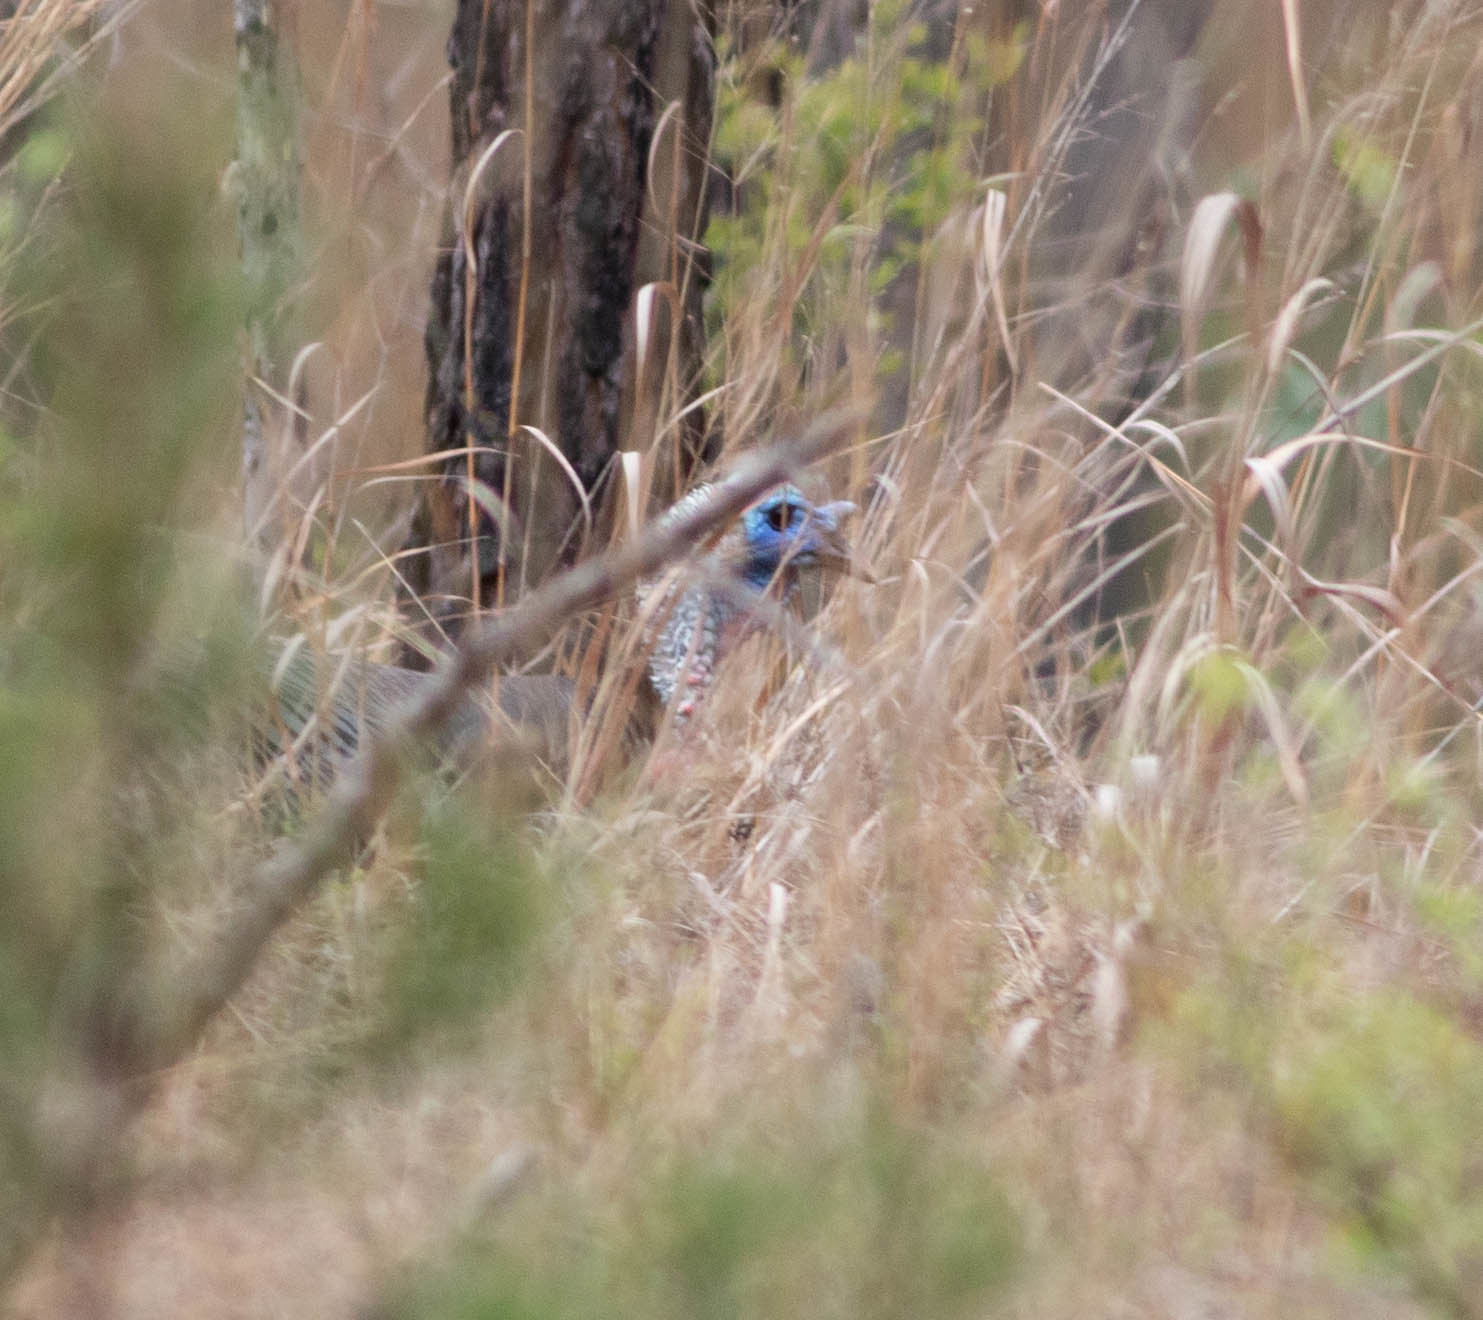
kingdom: Animalia
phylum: Chordata
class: Aves
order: Galliformes
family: Phasianidae
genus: Meleagris
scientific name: Meleagris gallopavo
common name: Wild turkey
